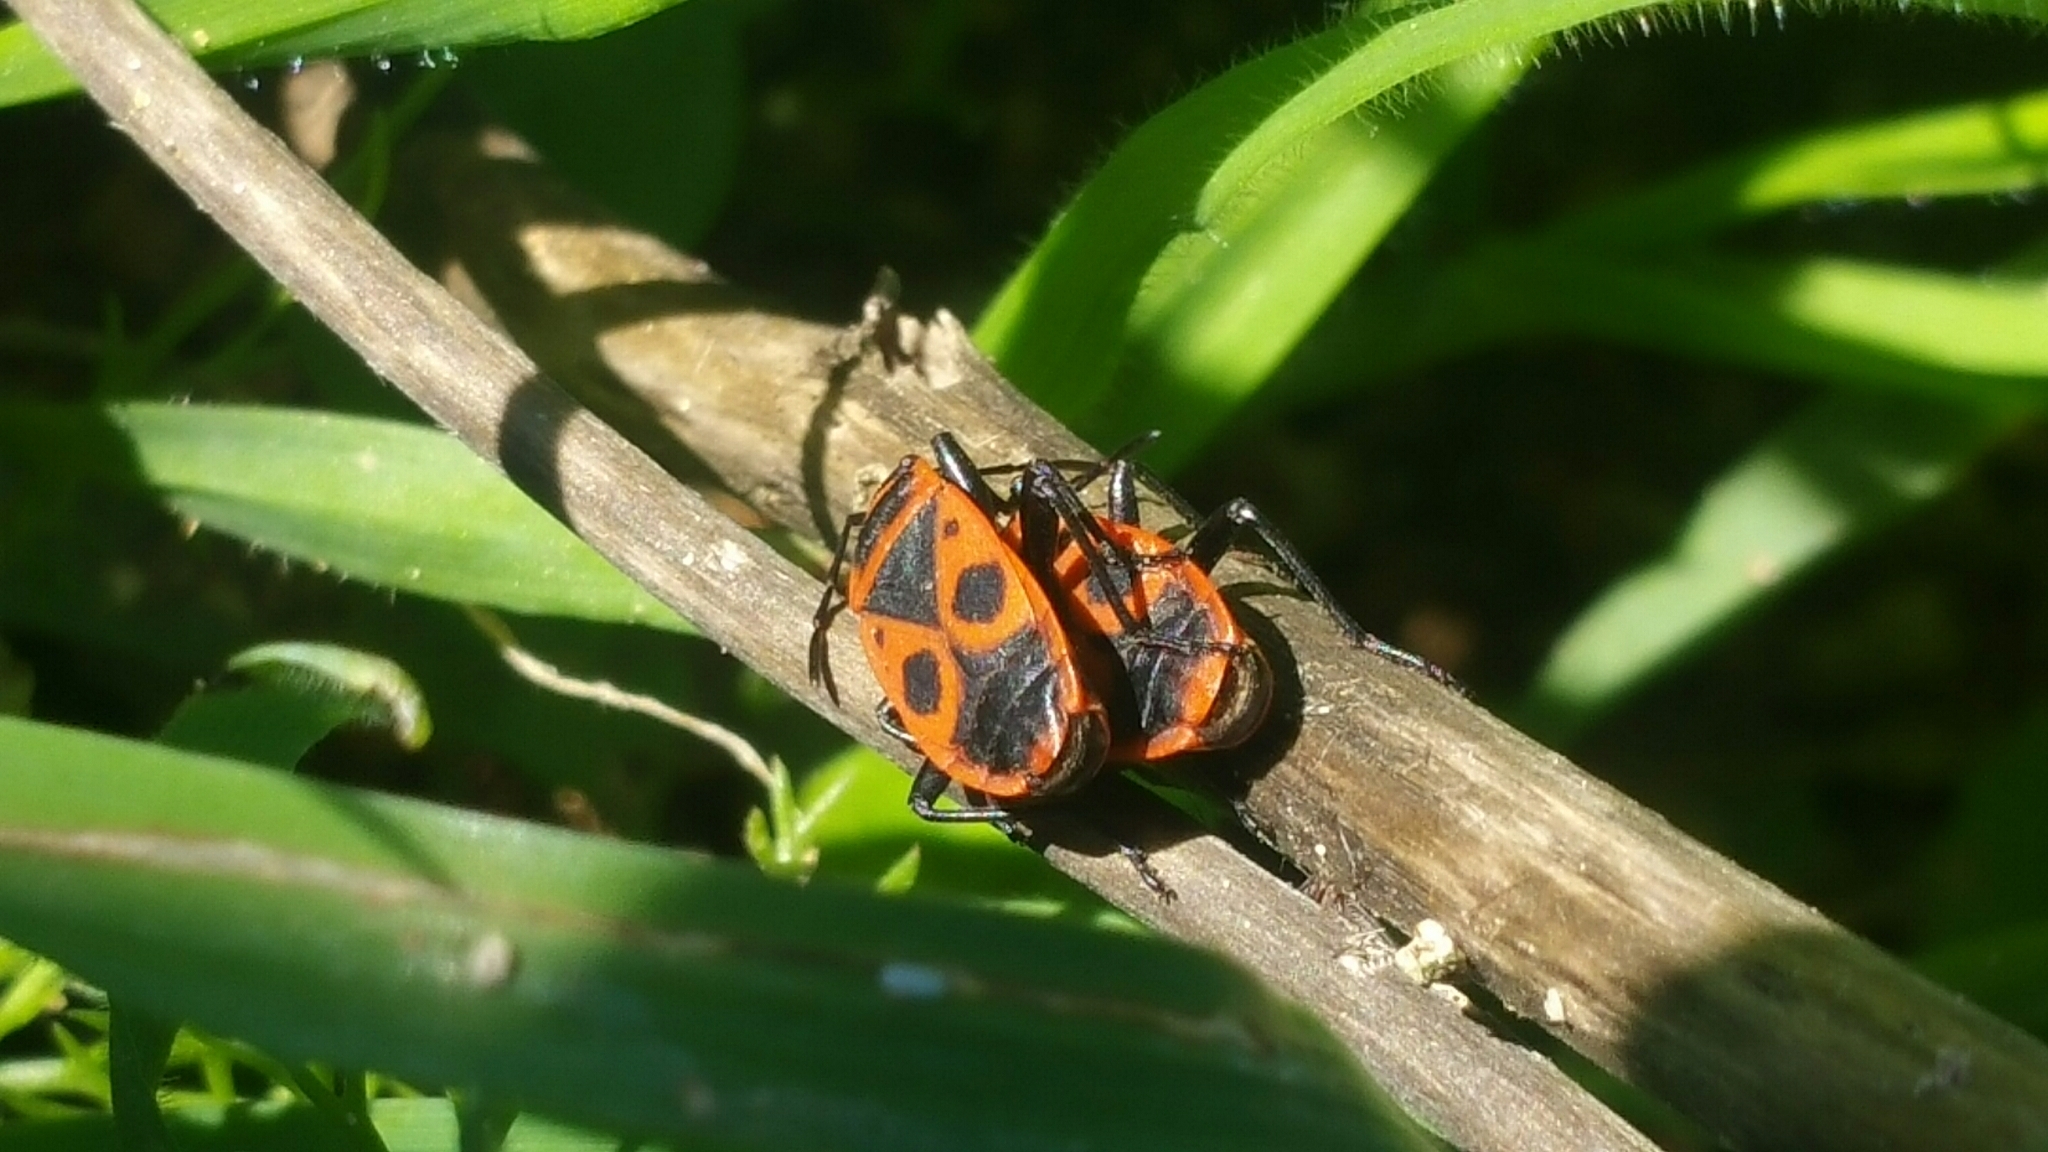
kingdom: Animalia
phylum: Arthropoda
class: Insecta
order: Hemiptera
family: Pyrrhocoridae
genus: Pyrrhocoris
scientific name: Pyrrhocoris apterus
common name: Firebug
